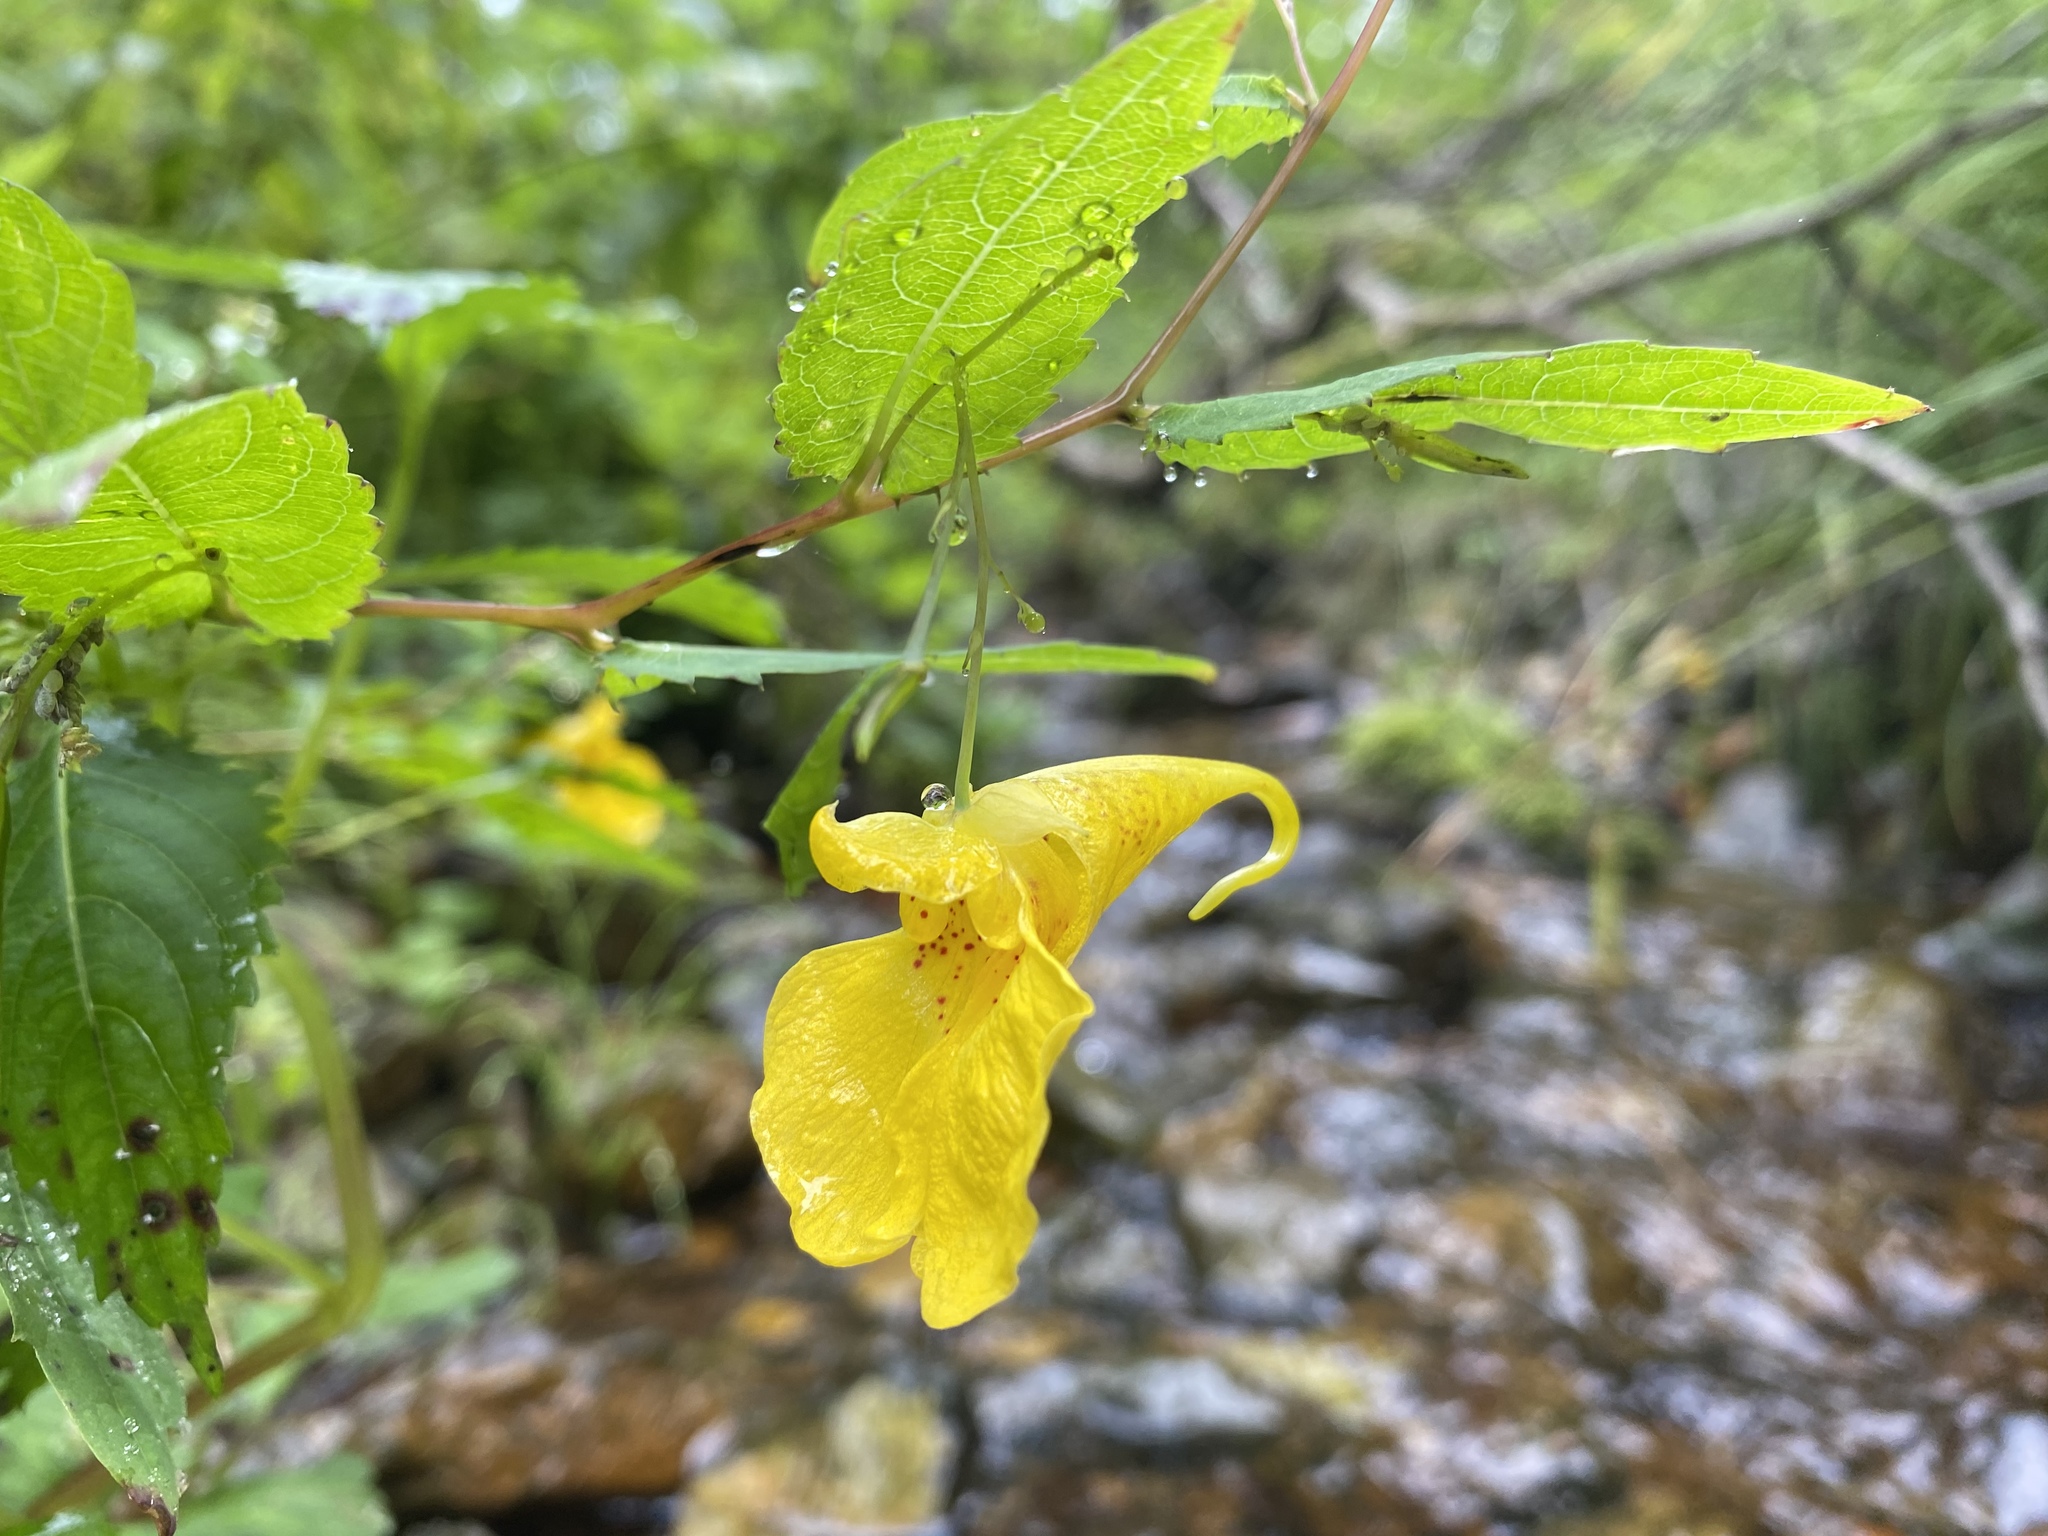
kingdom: Plantae
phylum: Tracheophyta
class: Magnoliopsida
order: Ericales
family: Balsaminaceae
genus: Impatiens
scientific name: Impatiens noli-tangere
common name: Touch-me-not balsam
